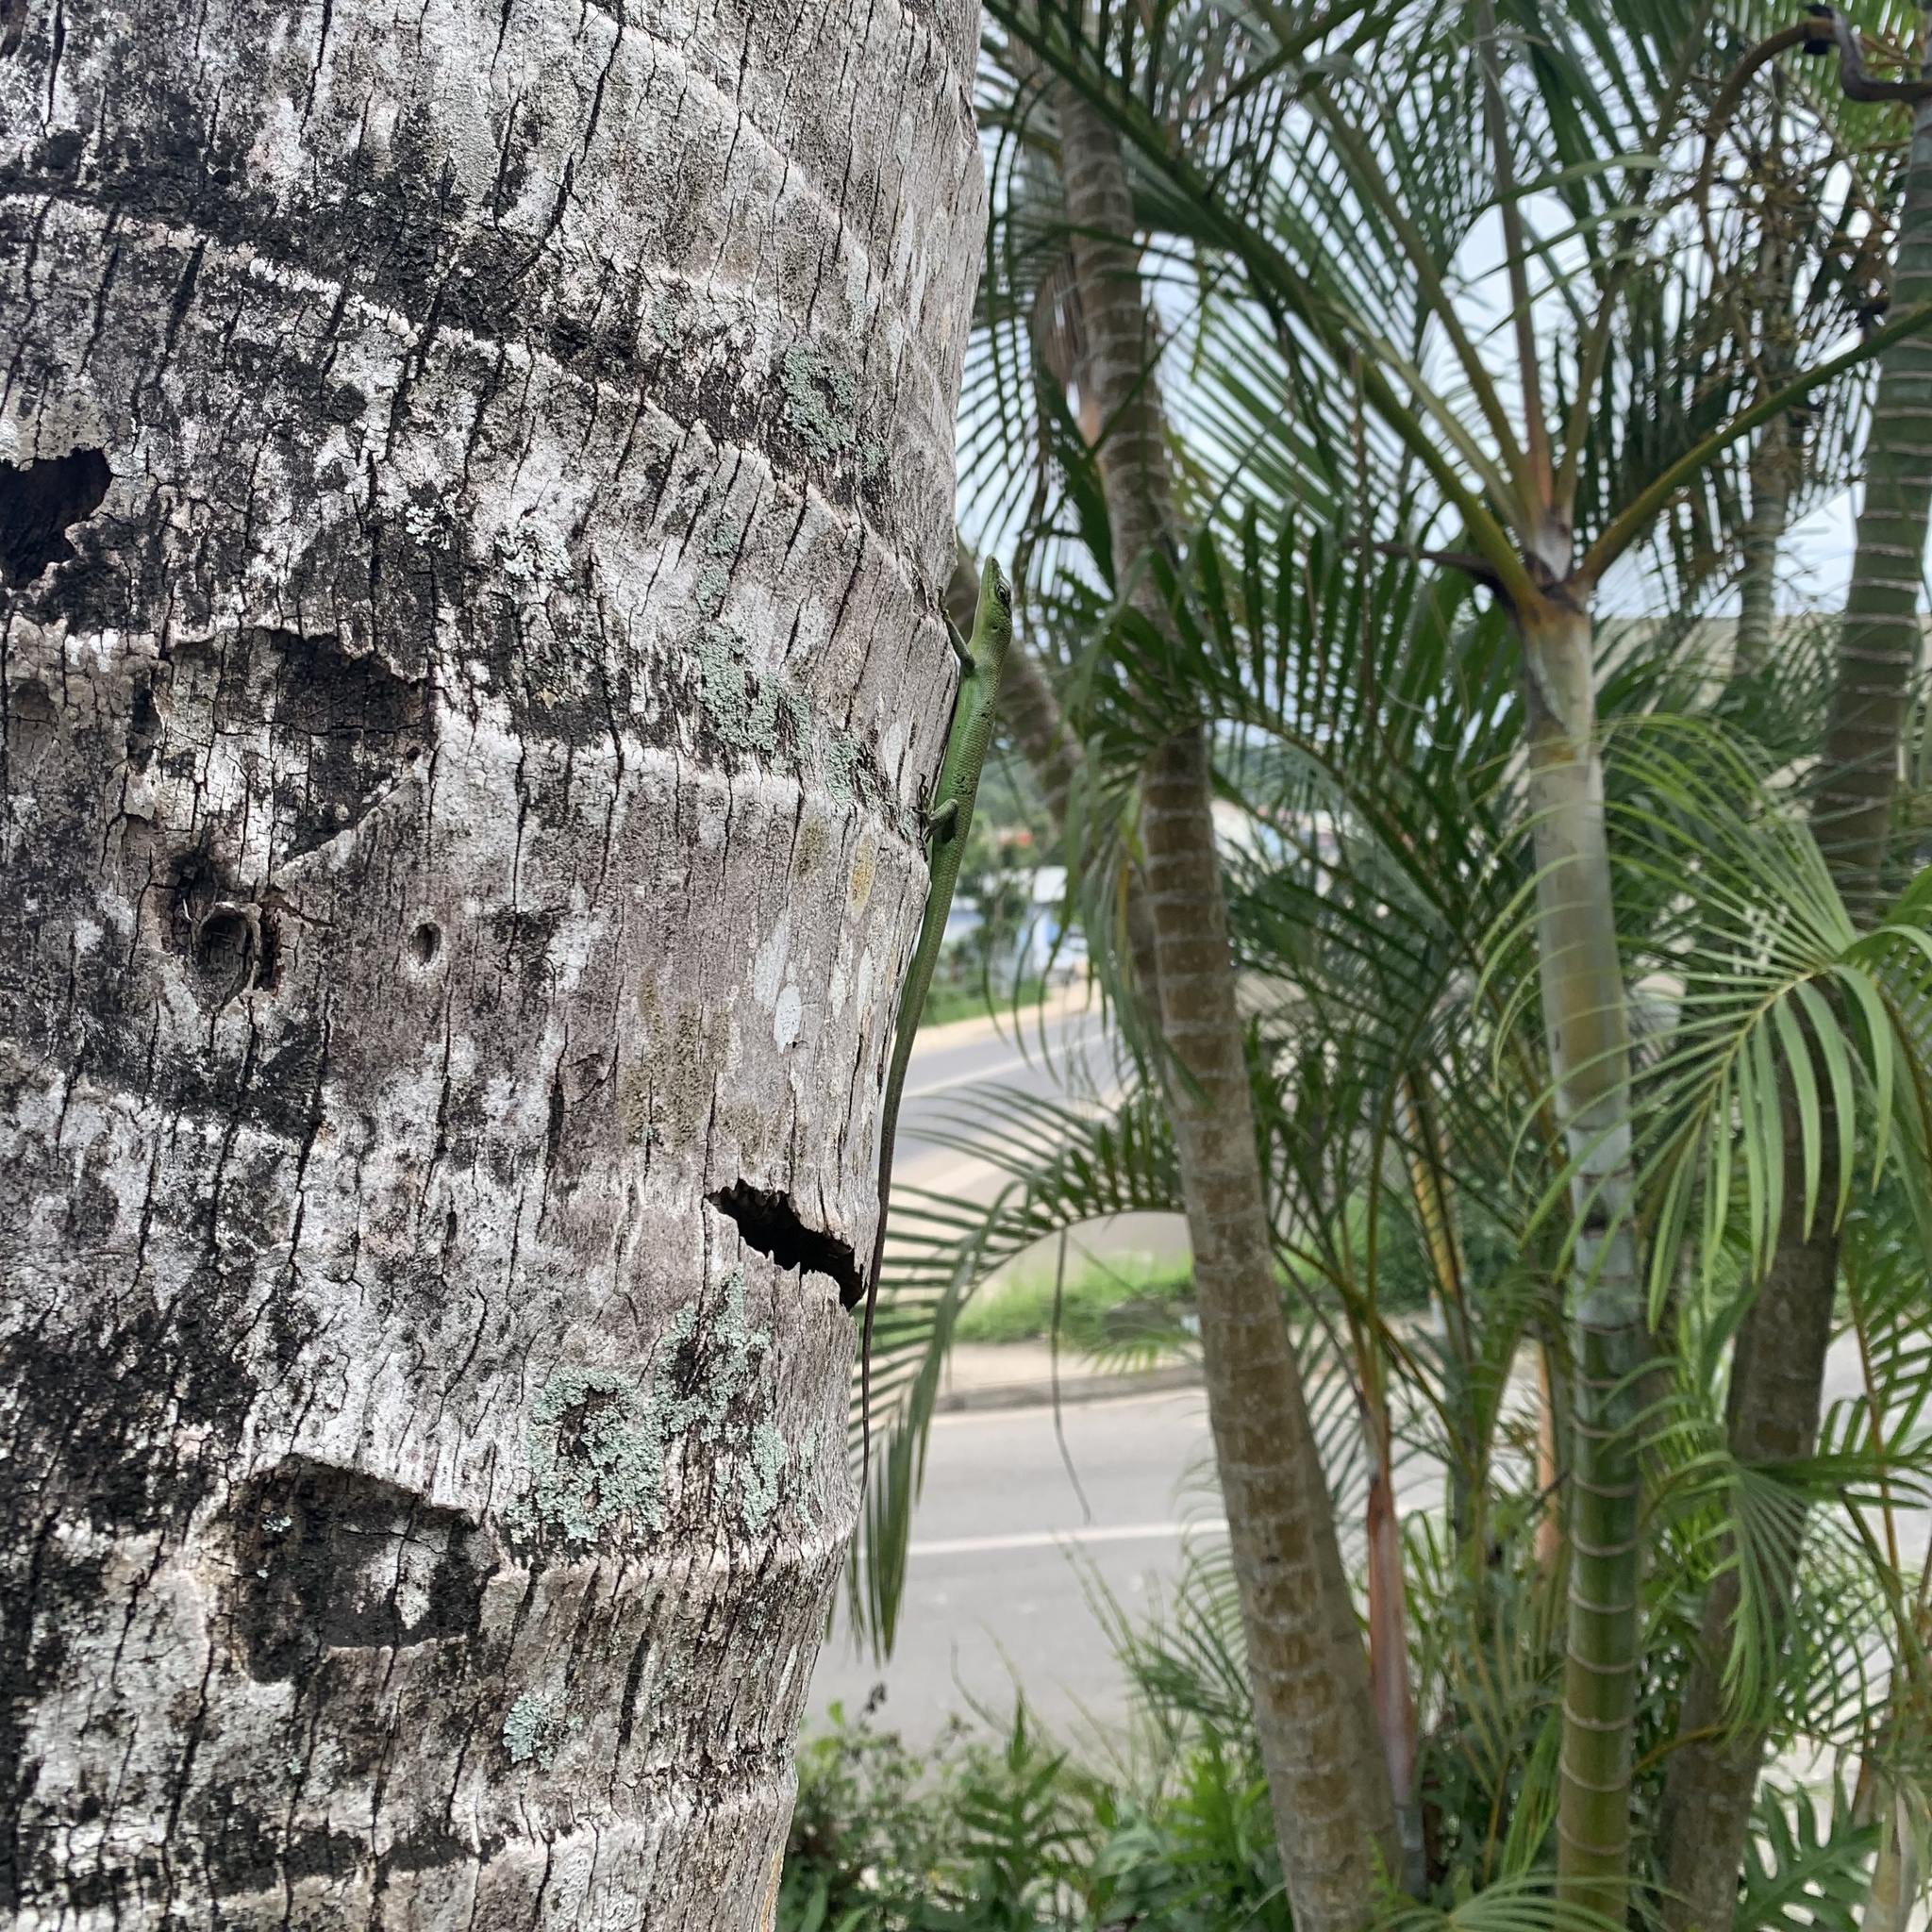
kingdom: Animalia
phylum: Chordata
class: Squamata
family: Scincidae
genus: Emoia
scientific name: Emoia sanfordi
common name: Sanford's tree skink
